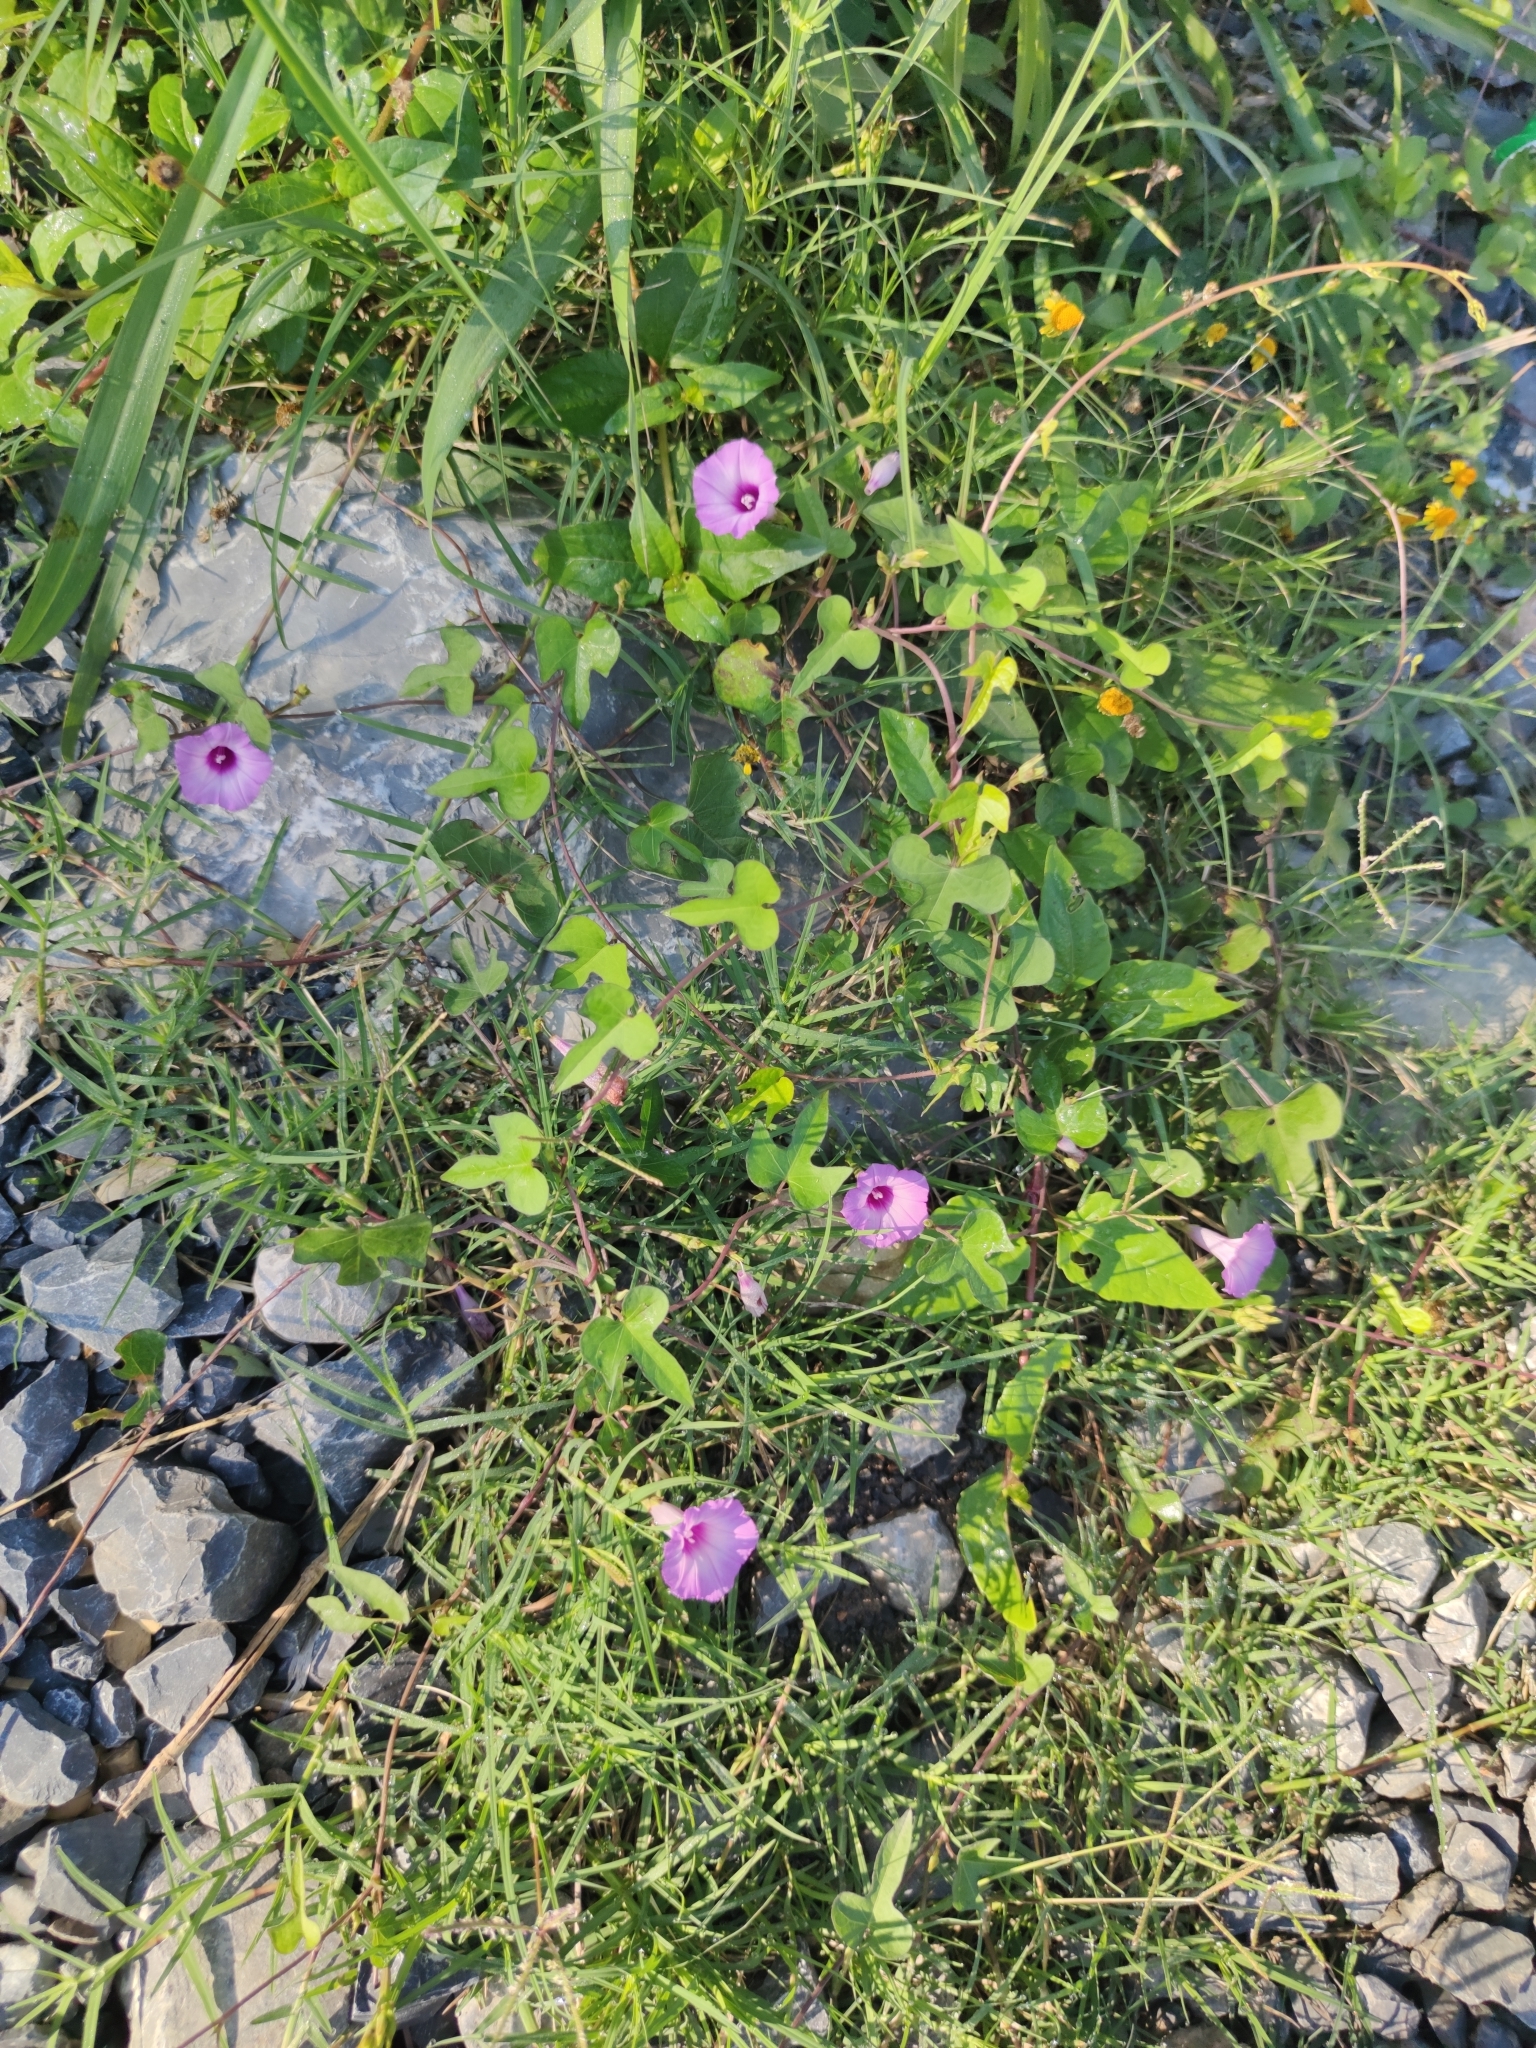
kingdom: Plantae
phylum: Tracheophyta
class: Magnoliopsida
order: Solanales
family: Convolvulaceae
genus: Ipomoea
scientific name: Ipomoea cordatotriloba
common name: Cotton morning glory
